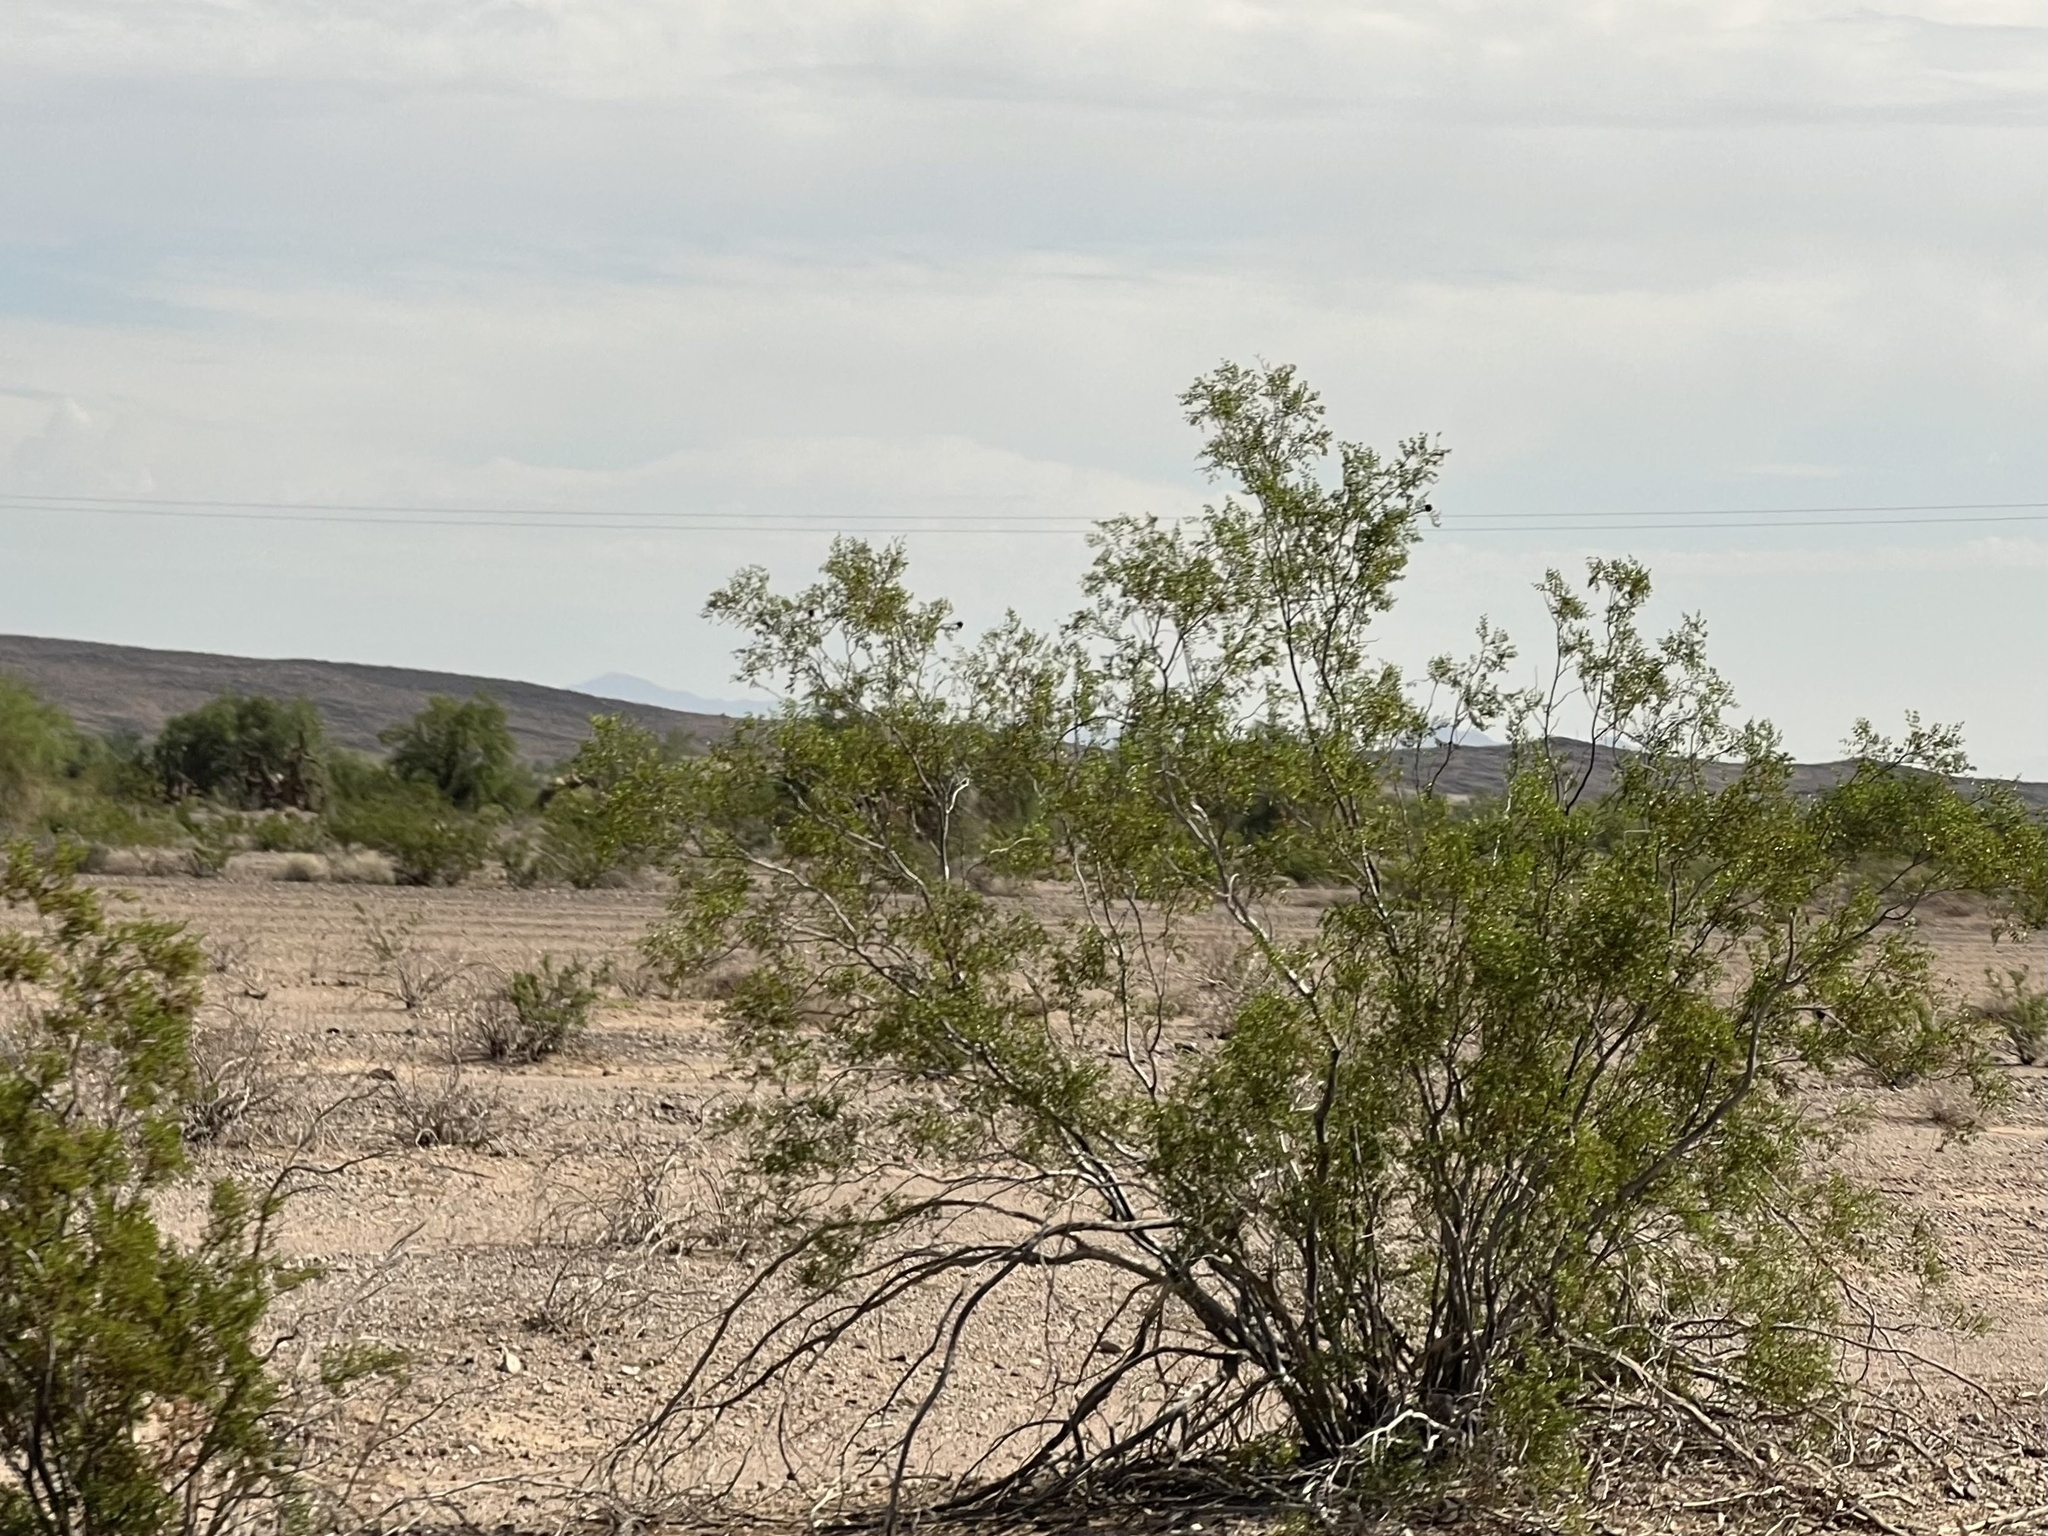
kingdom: Plantae
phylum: Tracheophyta
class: Magnoliopsida
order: Zygophyllales
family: Zygophyllaceae
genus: Larrea
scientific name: Larrea tridentata
